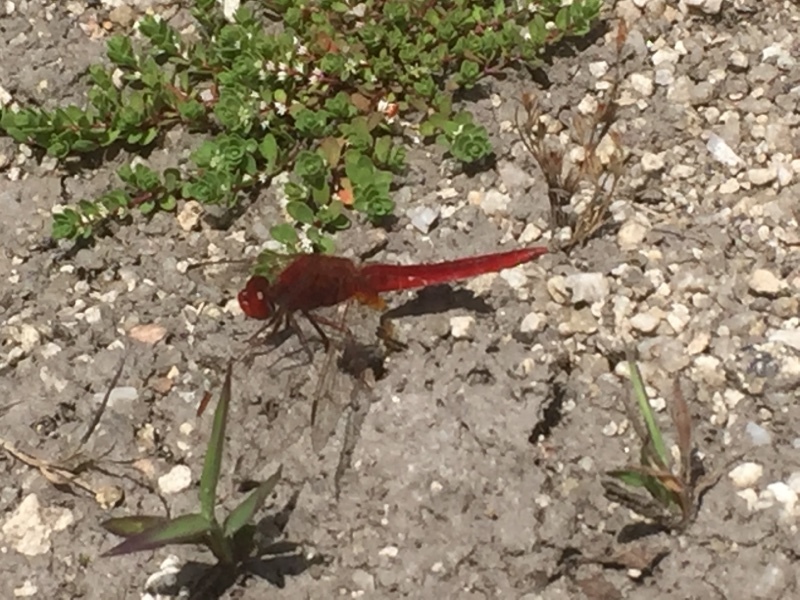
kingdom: Animalia
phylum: Arthropoda
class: Insecta
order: Odonata
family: Libellulidae
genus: Crocothemis
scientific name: Crocothemis erythraea
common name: Scarlet dragonfly
